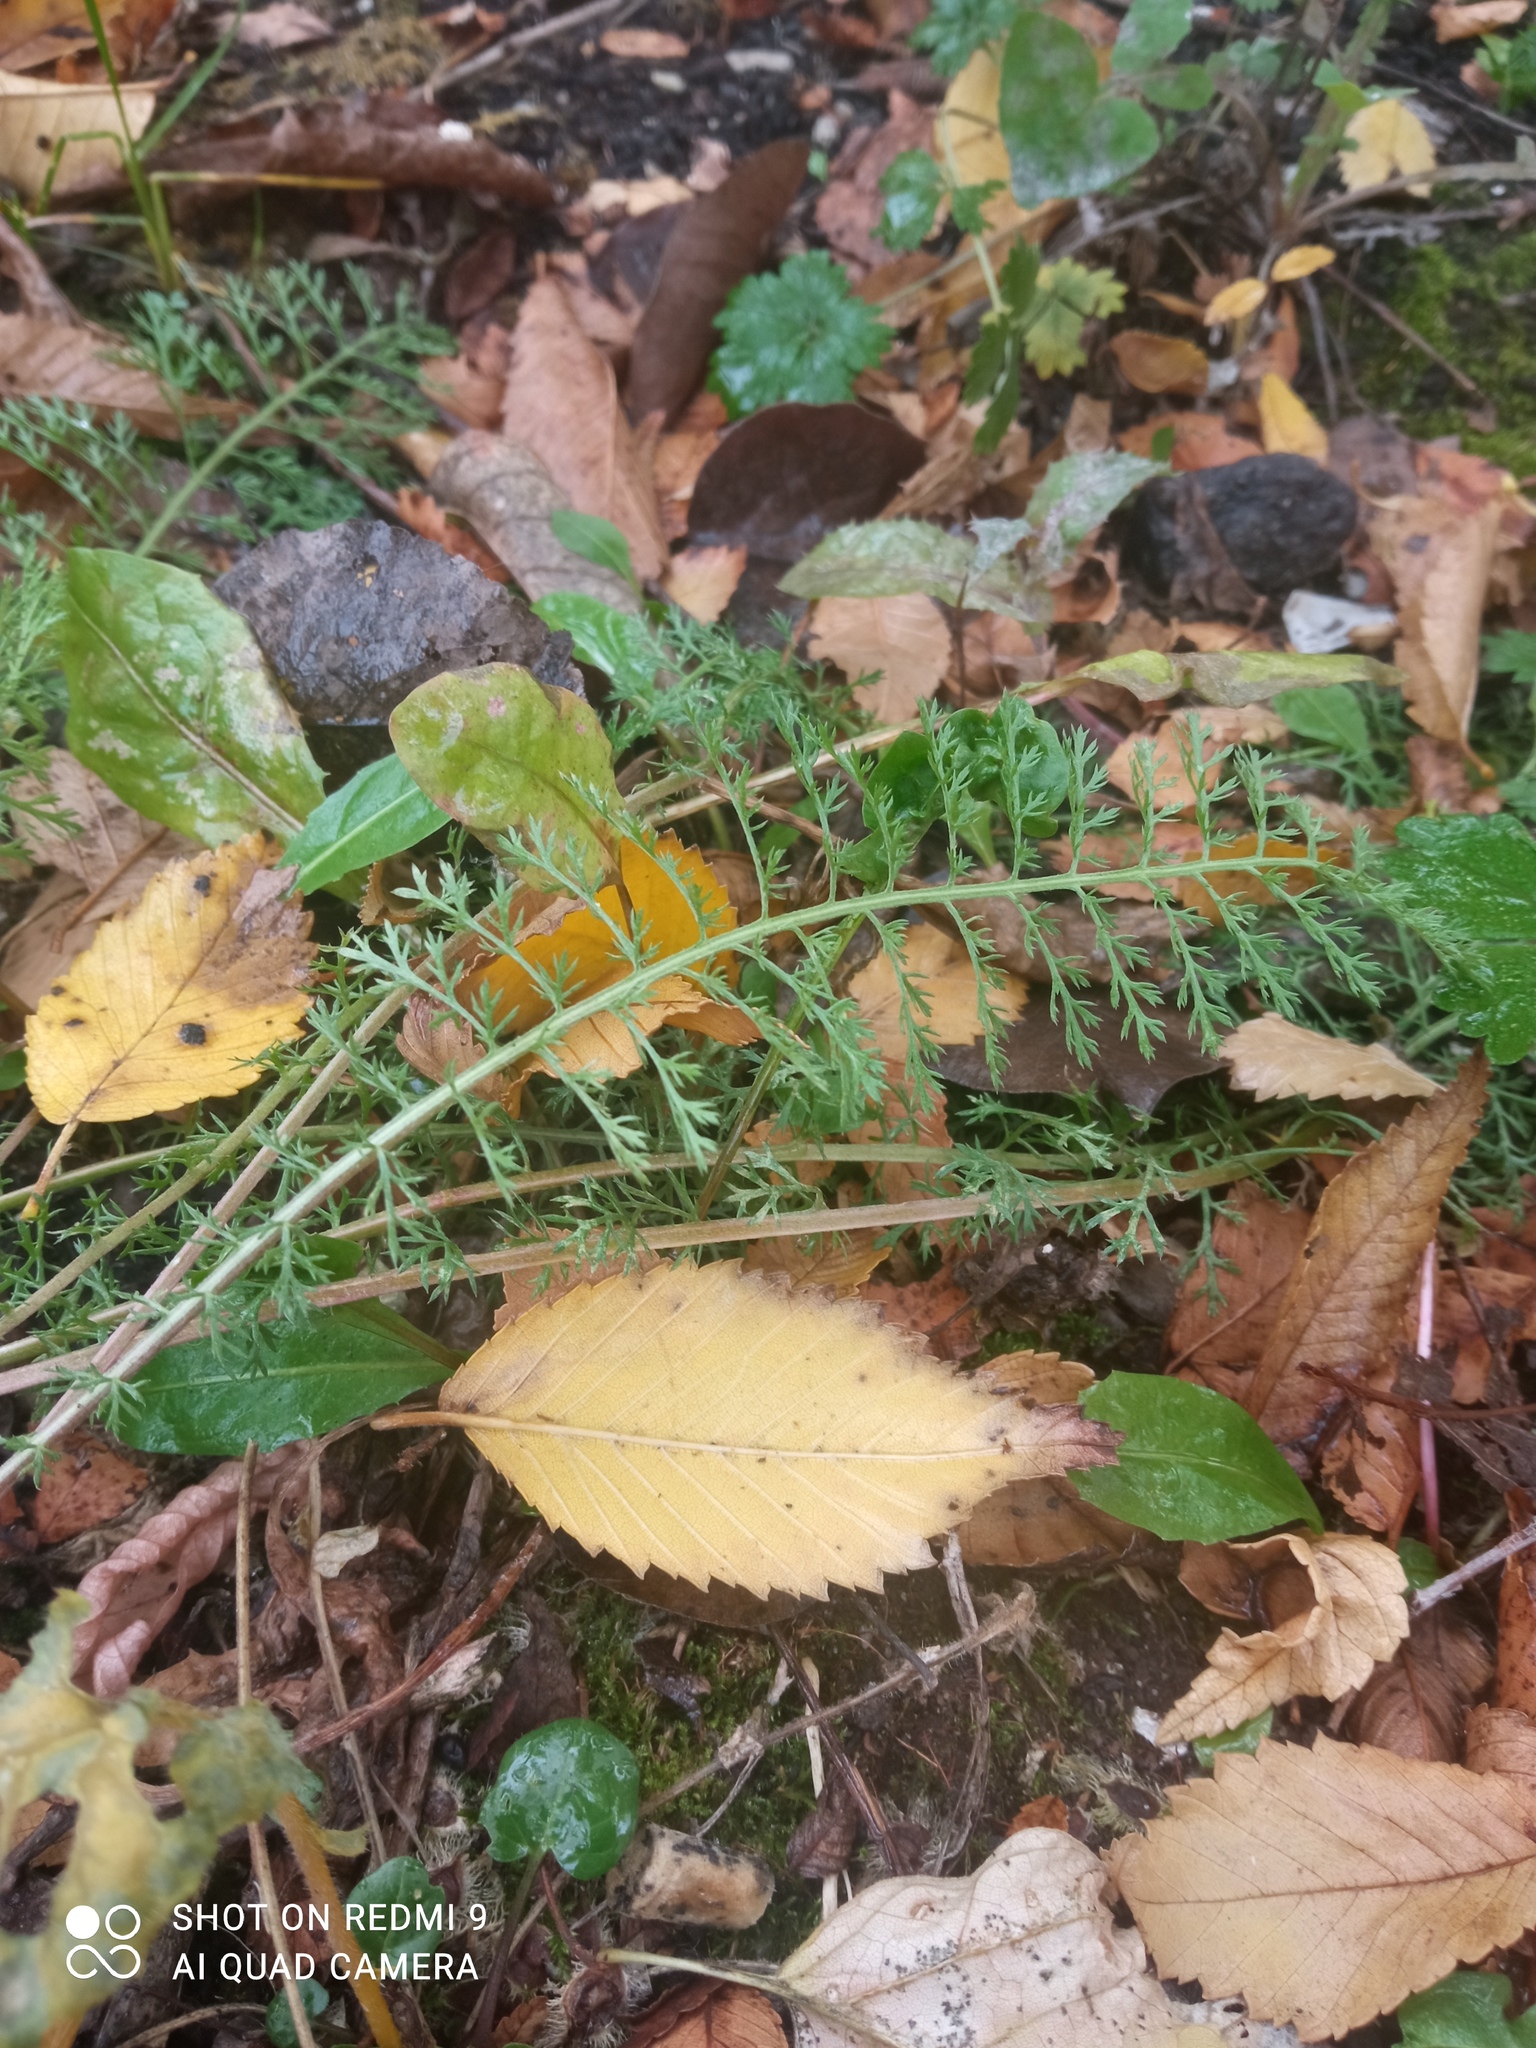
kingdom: Plantae
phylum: Tracheophyta
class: Magnoliopsida
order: Asterales
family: Asteraceae
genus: Achillea
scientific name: Achillea millefolium
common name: Yarrow
